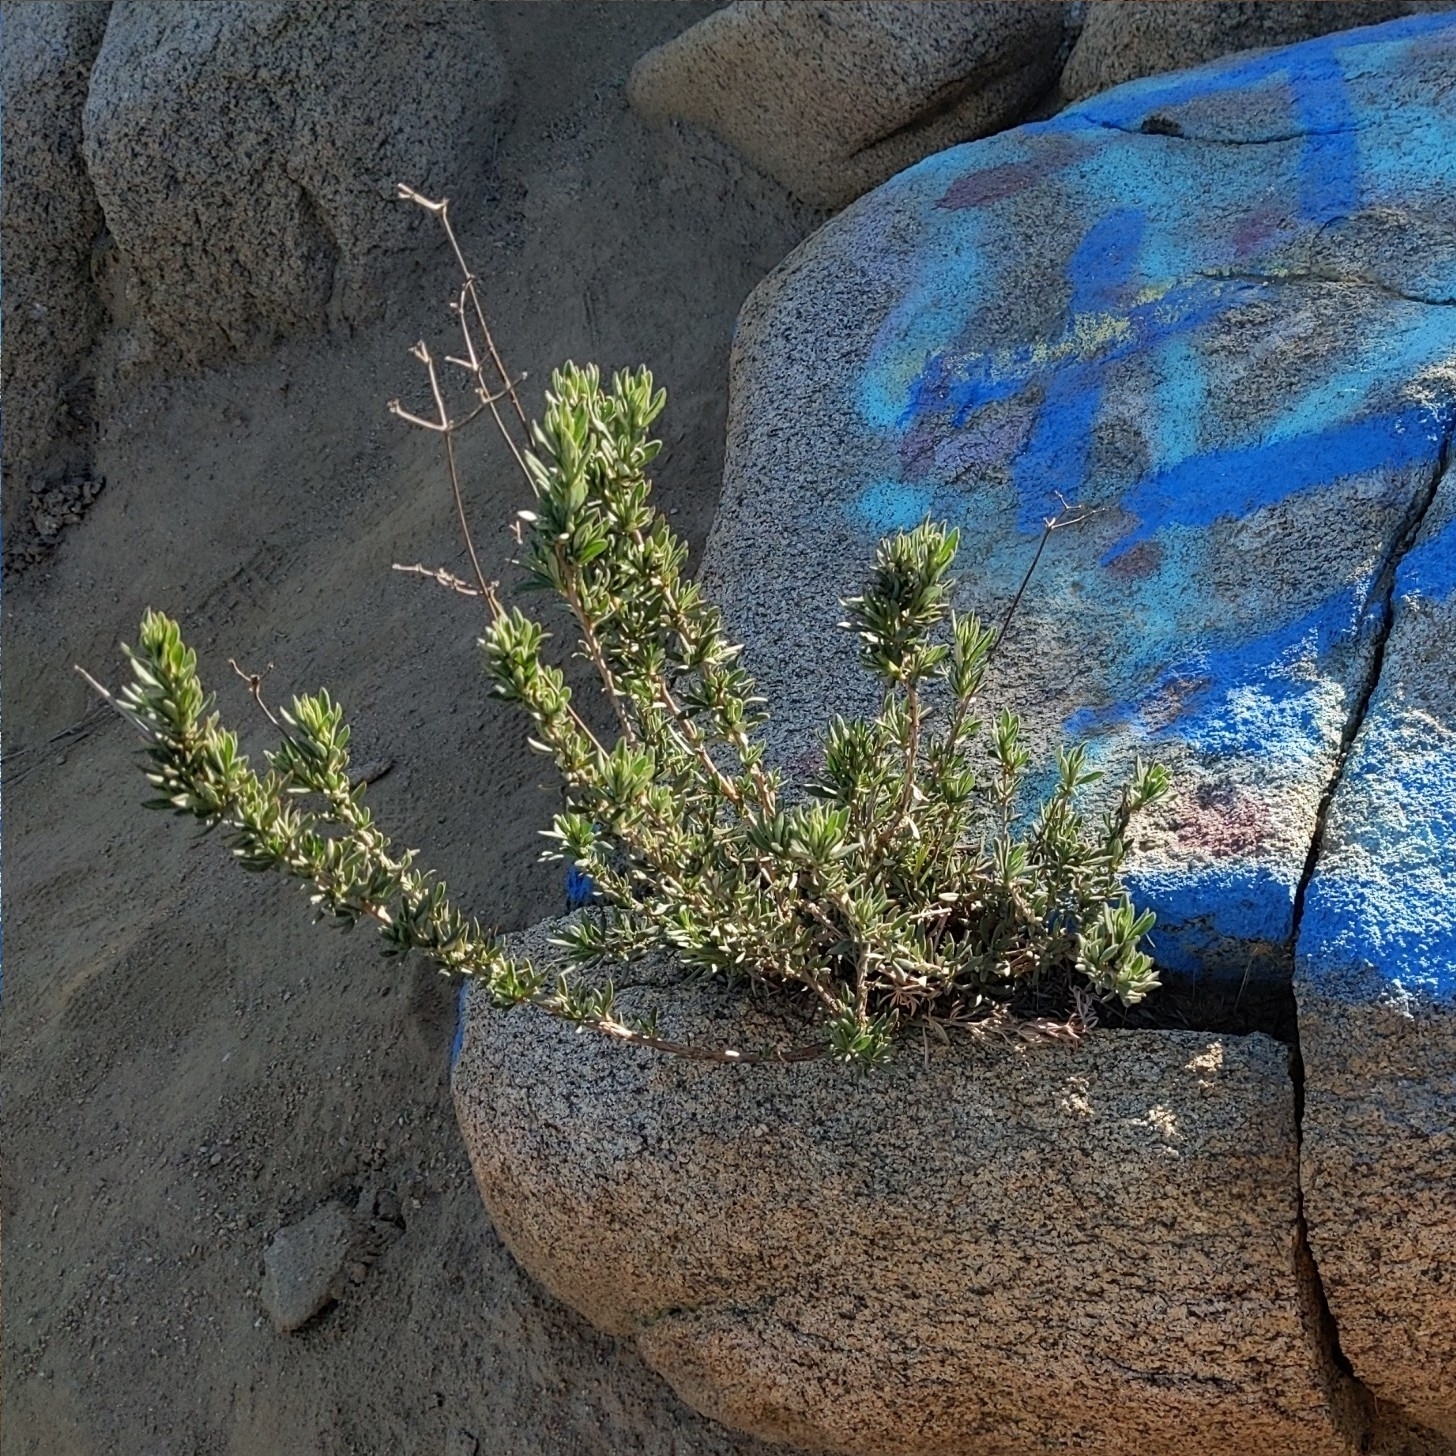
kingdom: Plantae
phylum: Tracheophyta
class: Magnoliopsida
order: Caryophyllales
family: Polygonaceae
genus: Eriogonum
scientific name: Eriogonum fasciculatum
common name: California wild buckwheat
